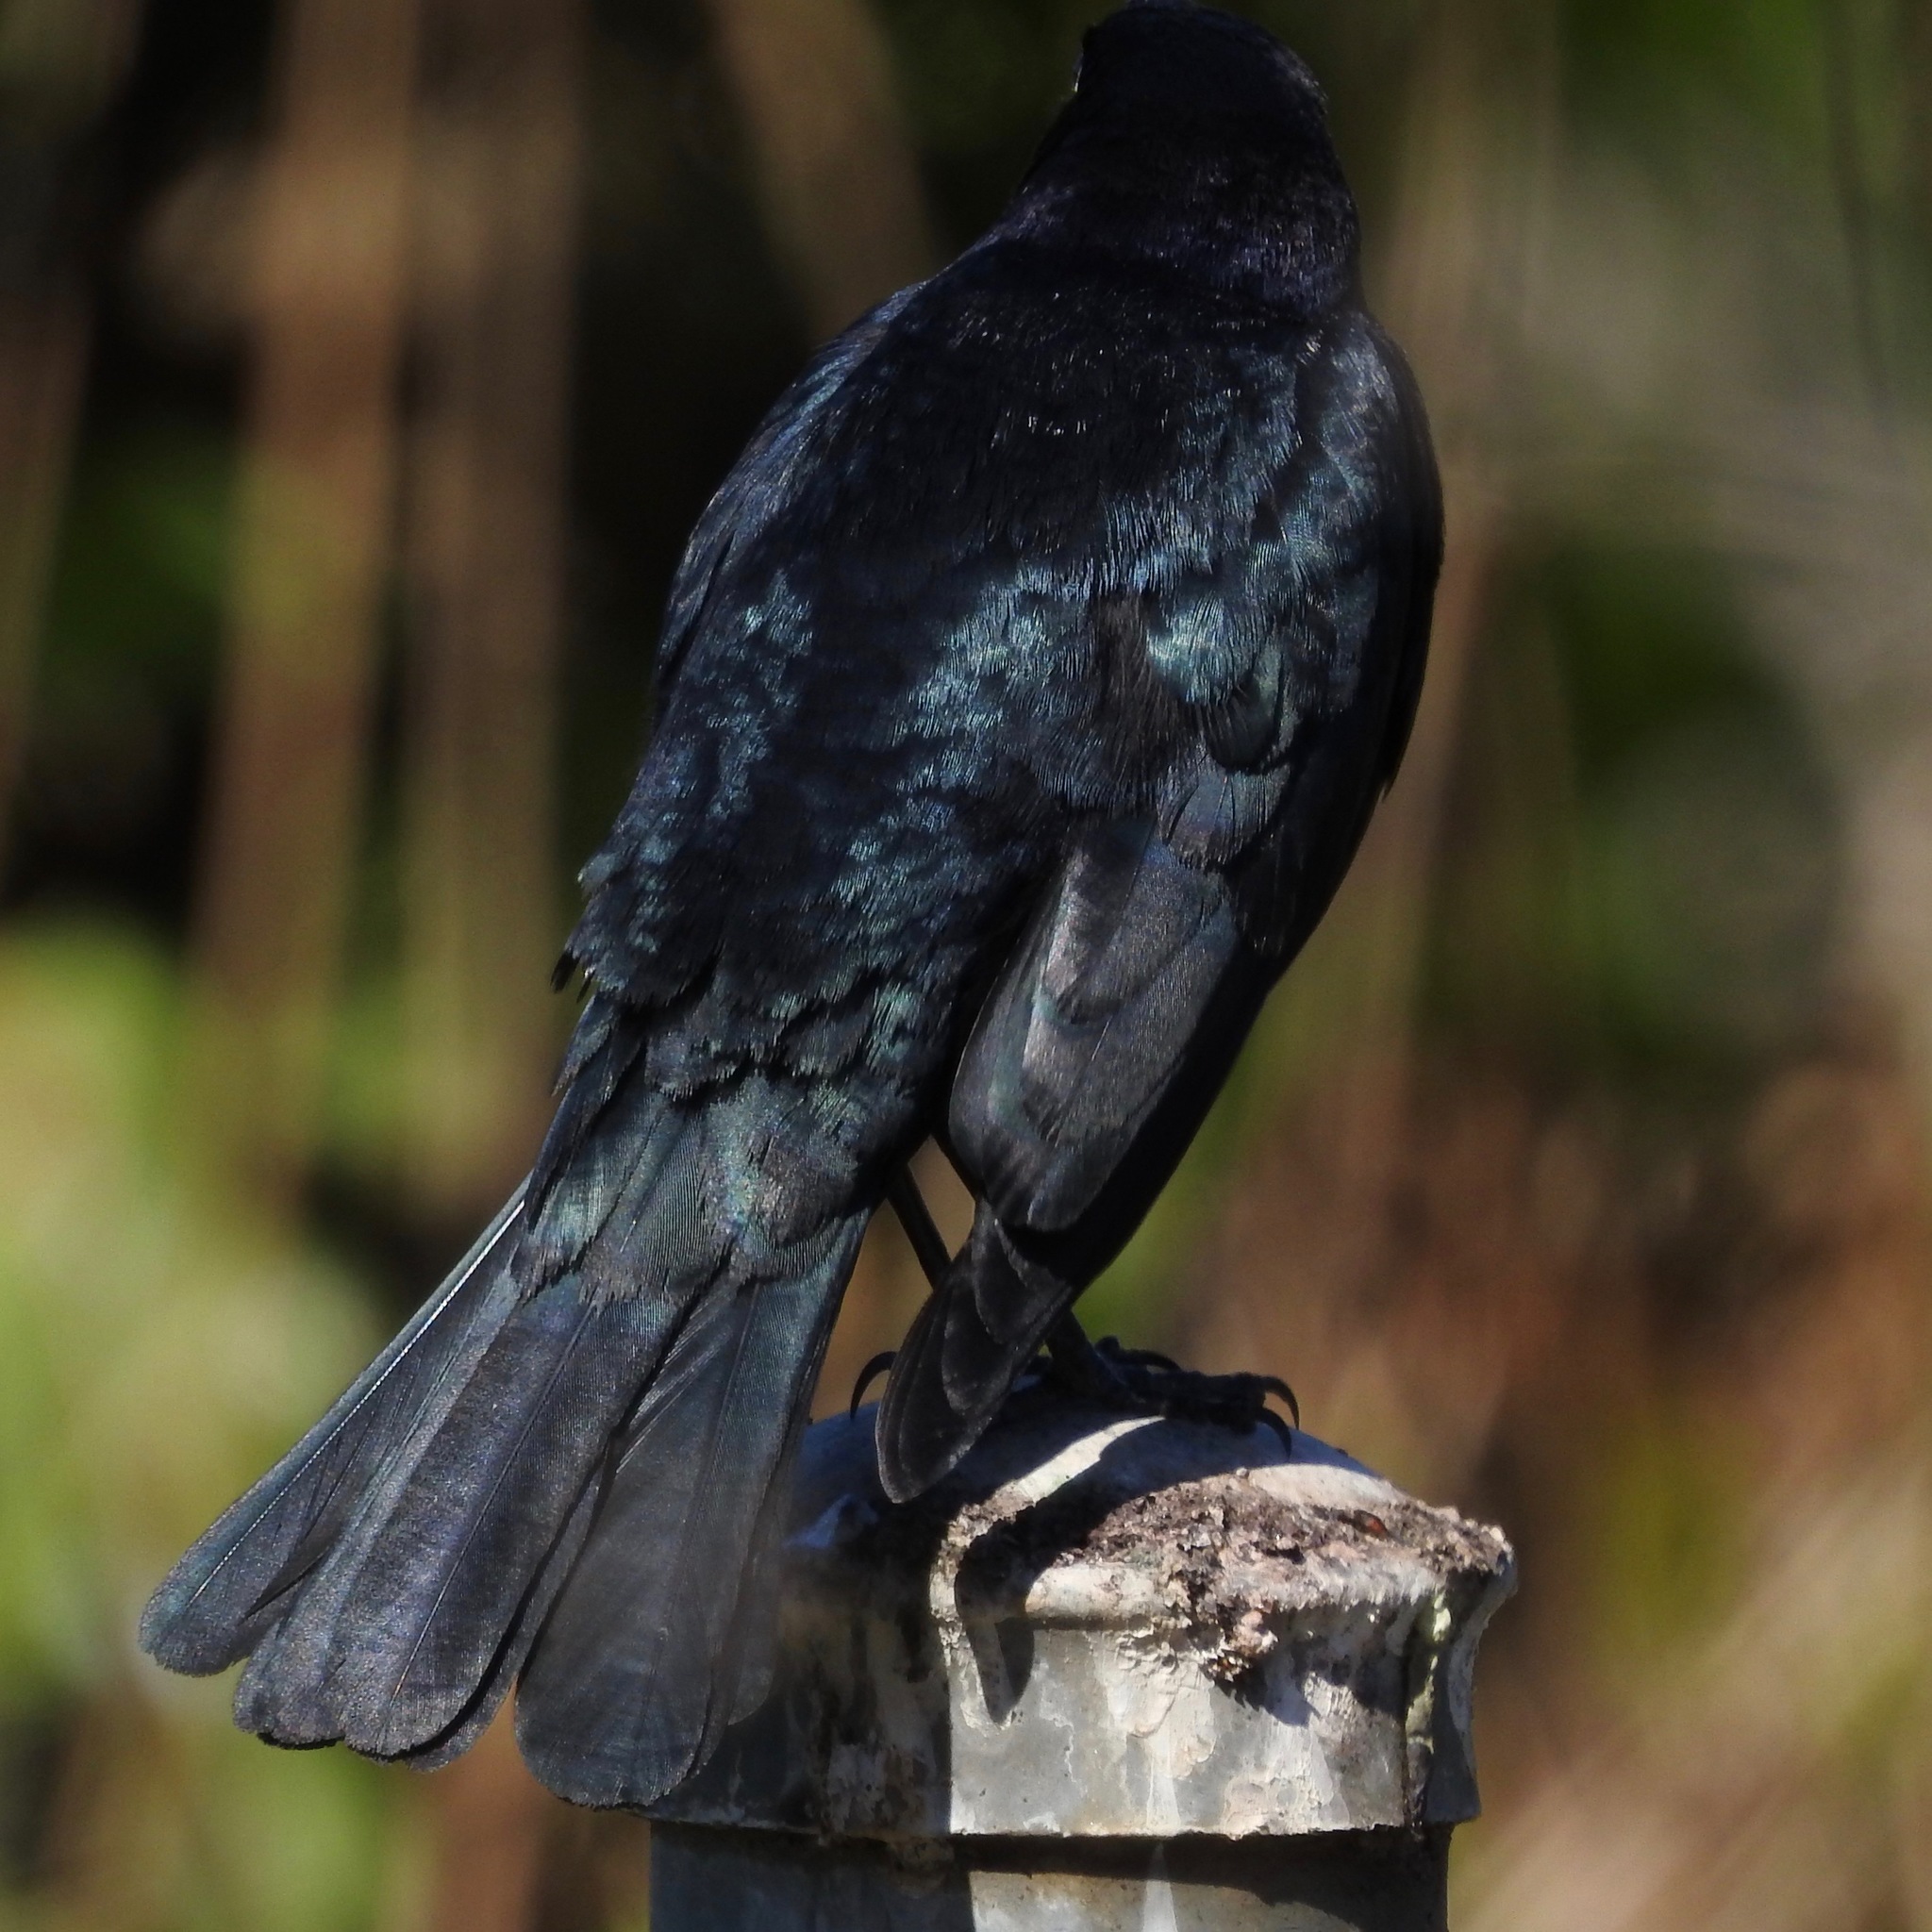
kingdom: Animalia
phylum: Chordata
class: Aves
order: Passeriformes
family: Icteridae
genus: Euphagus
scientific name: Euphagus cyanocephalus
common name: Brewer's blackbird
